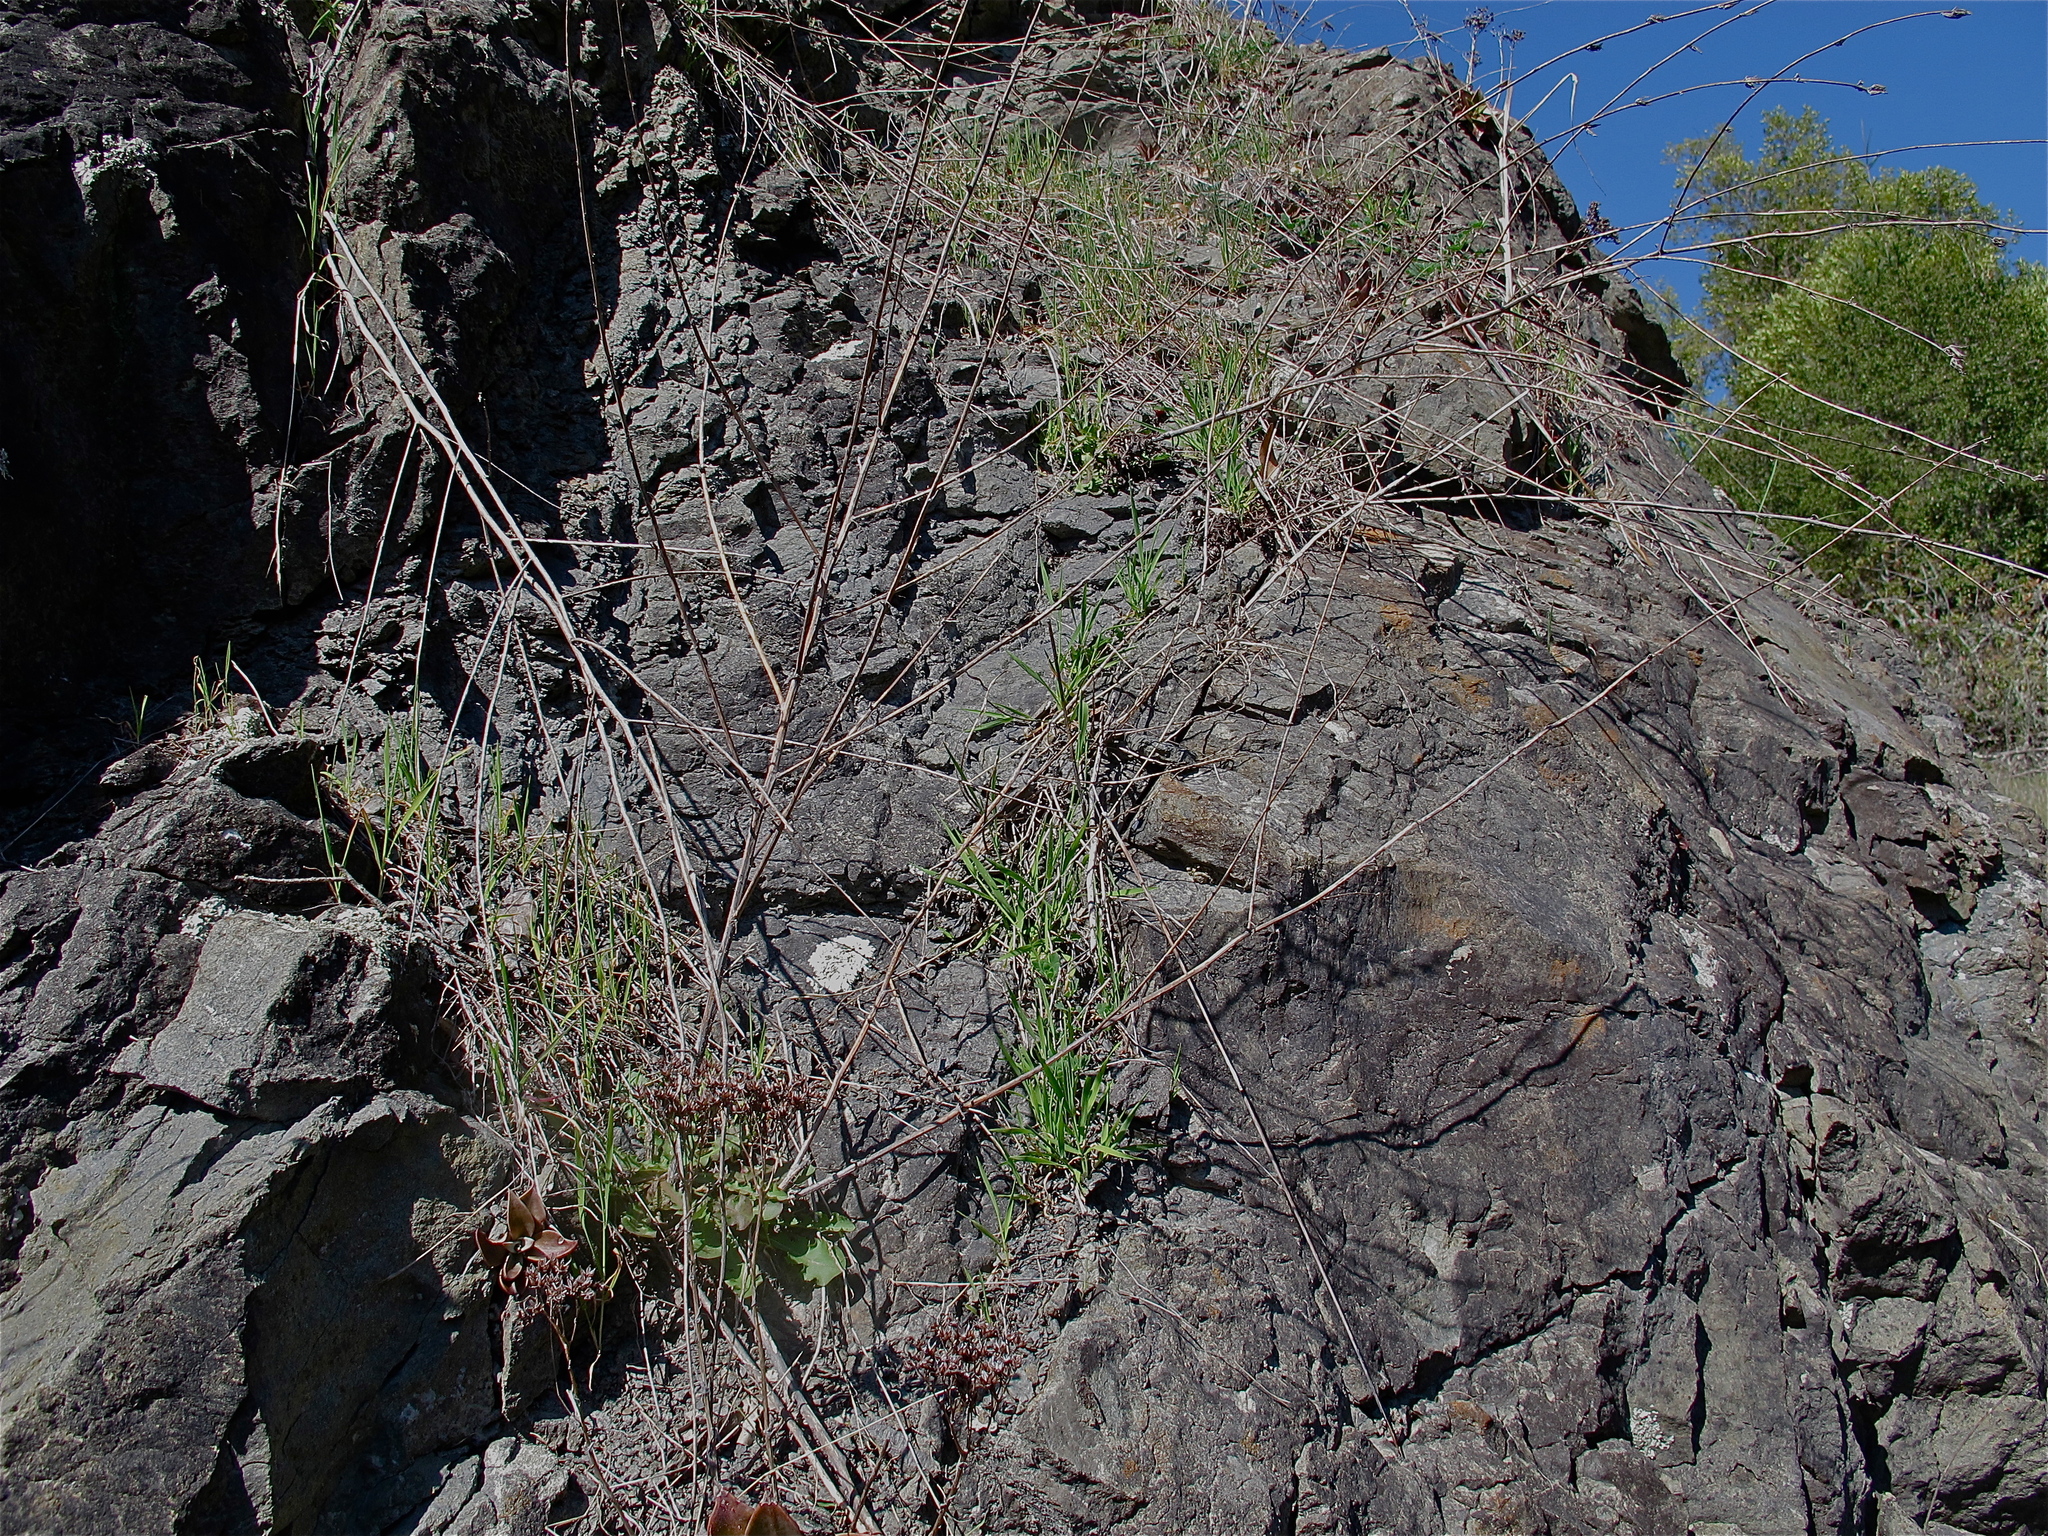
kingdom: Plantae
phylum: Tracheophyta
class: Magnoliopsida
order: Asterales
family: Asteraceae
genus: Chondrilla
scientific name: Chondrilla juncea
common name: Skeleton weed
